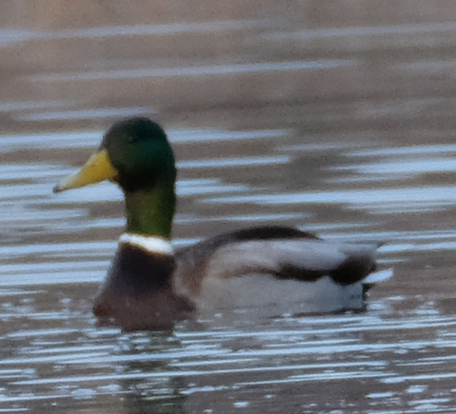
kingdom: Animalia
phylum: Chordata
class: Aves
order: Anseriformes
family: Anatidae
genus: Anas
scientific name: Anas platyrhynchos
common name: Mallard
